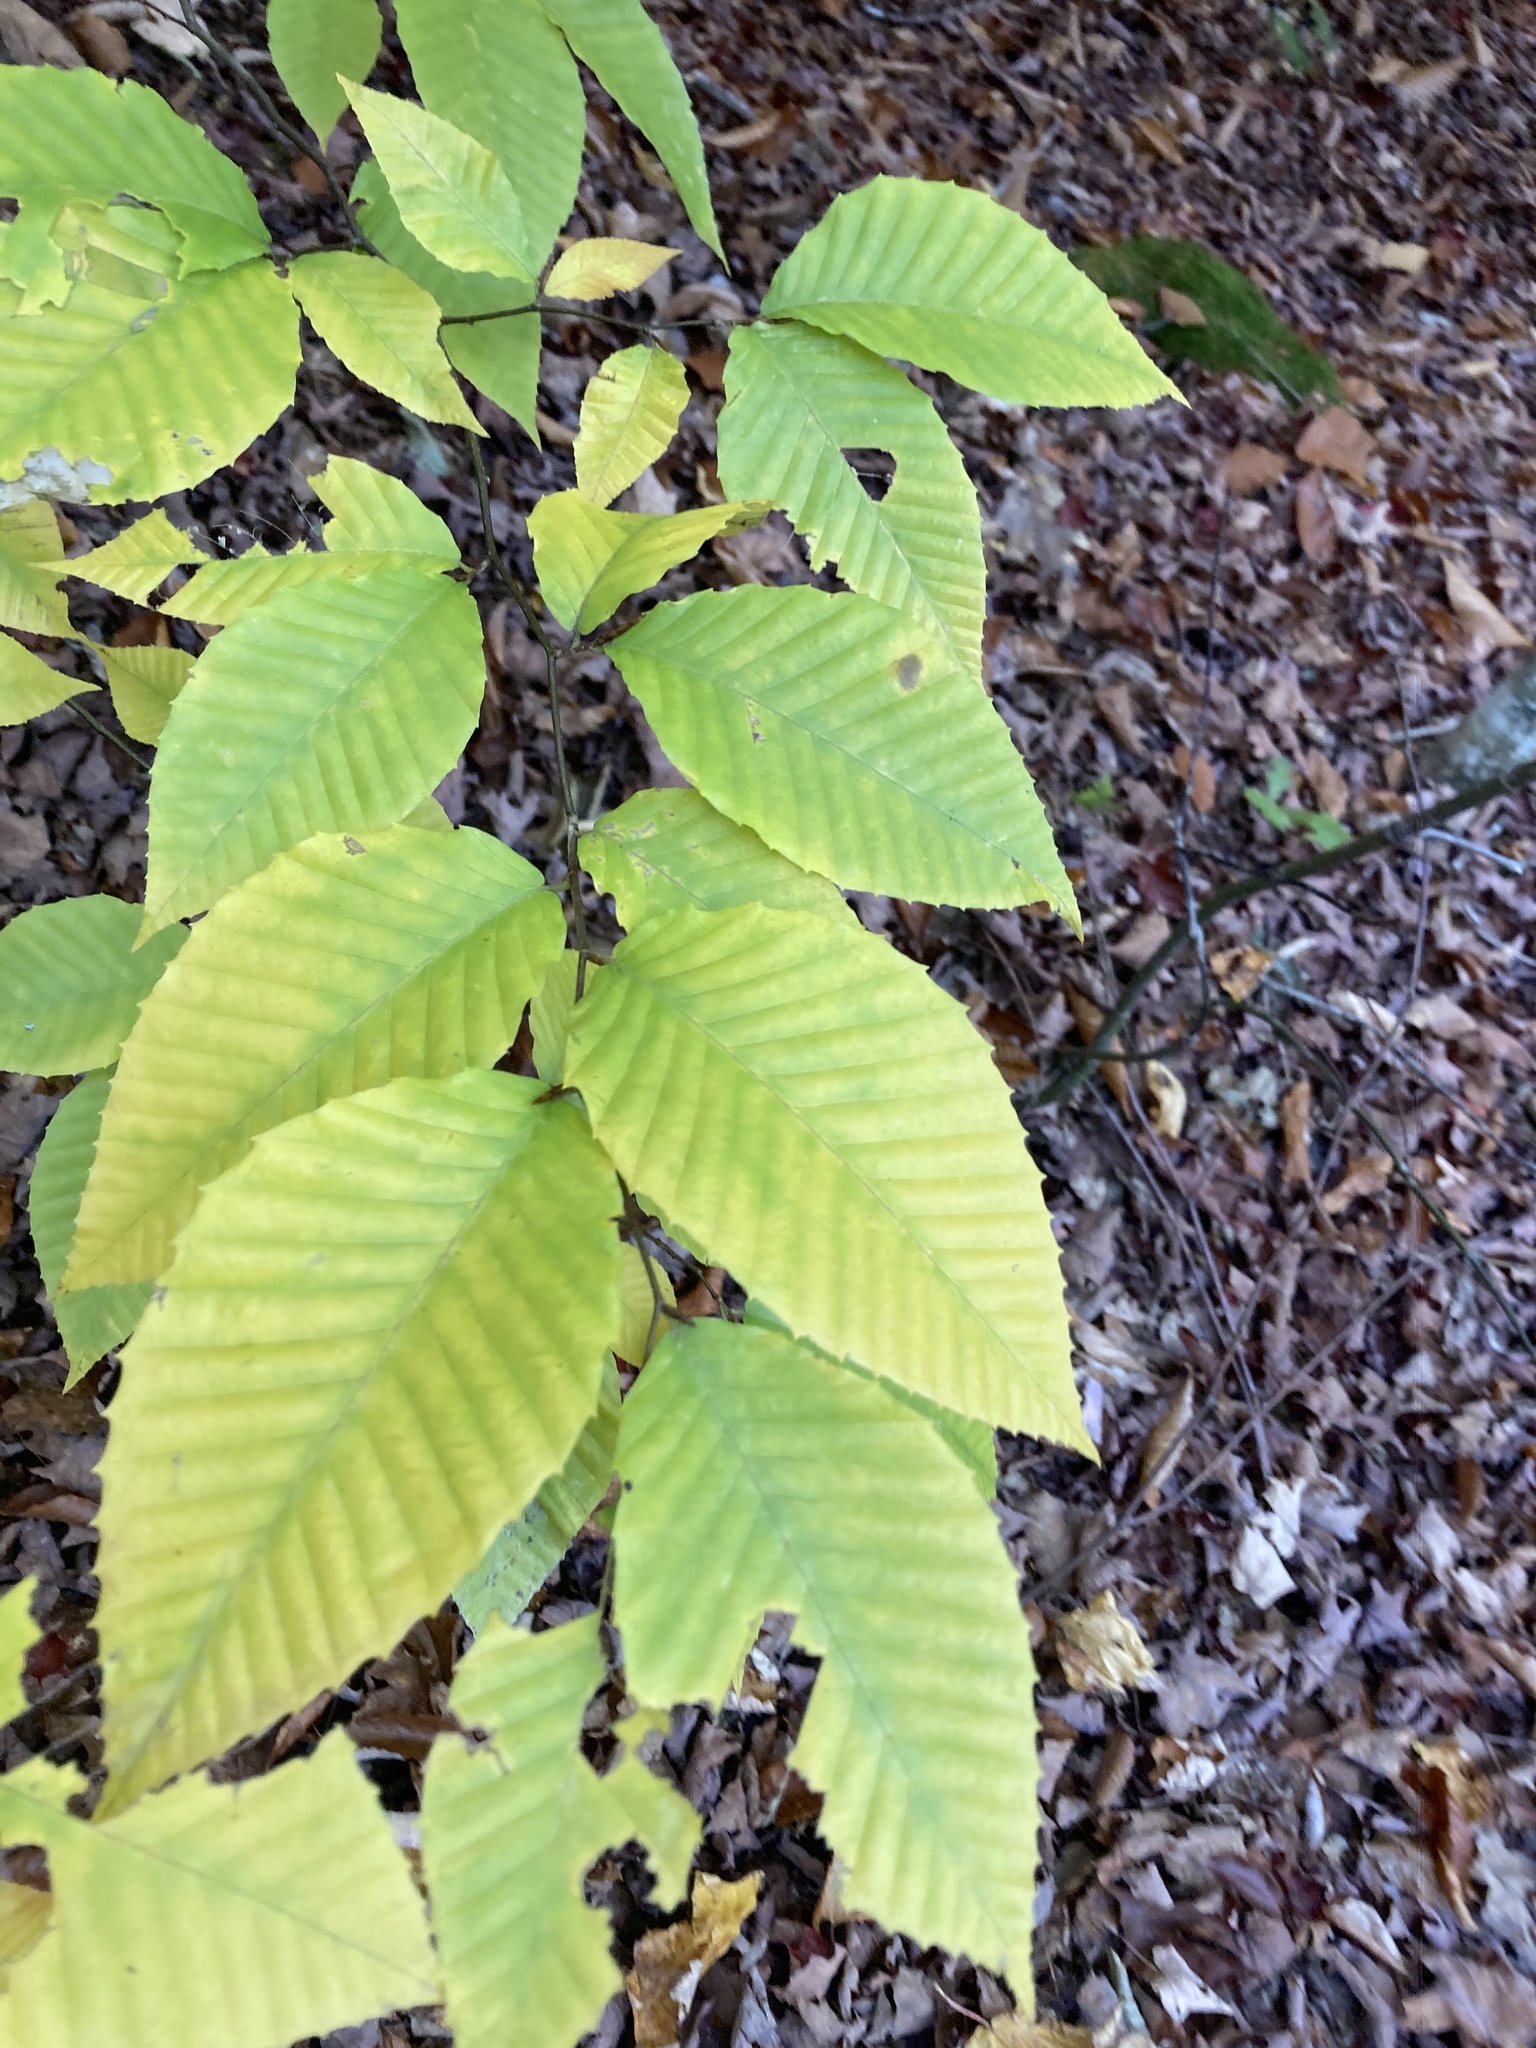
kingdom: Plantae
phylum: Tracheophyta
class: Magnoliopsida
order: Fagales
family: Fagaceae
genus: Fagus
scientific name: Fagus grandifolia
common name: American beech
